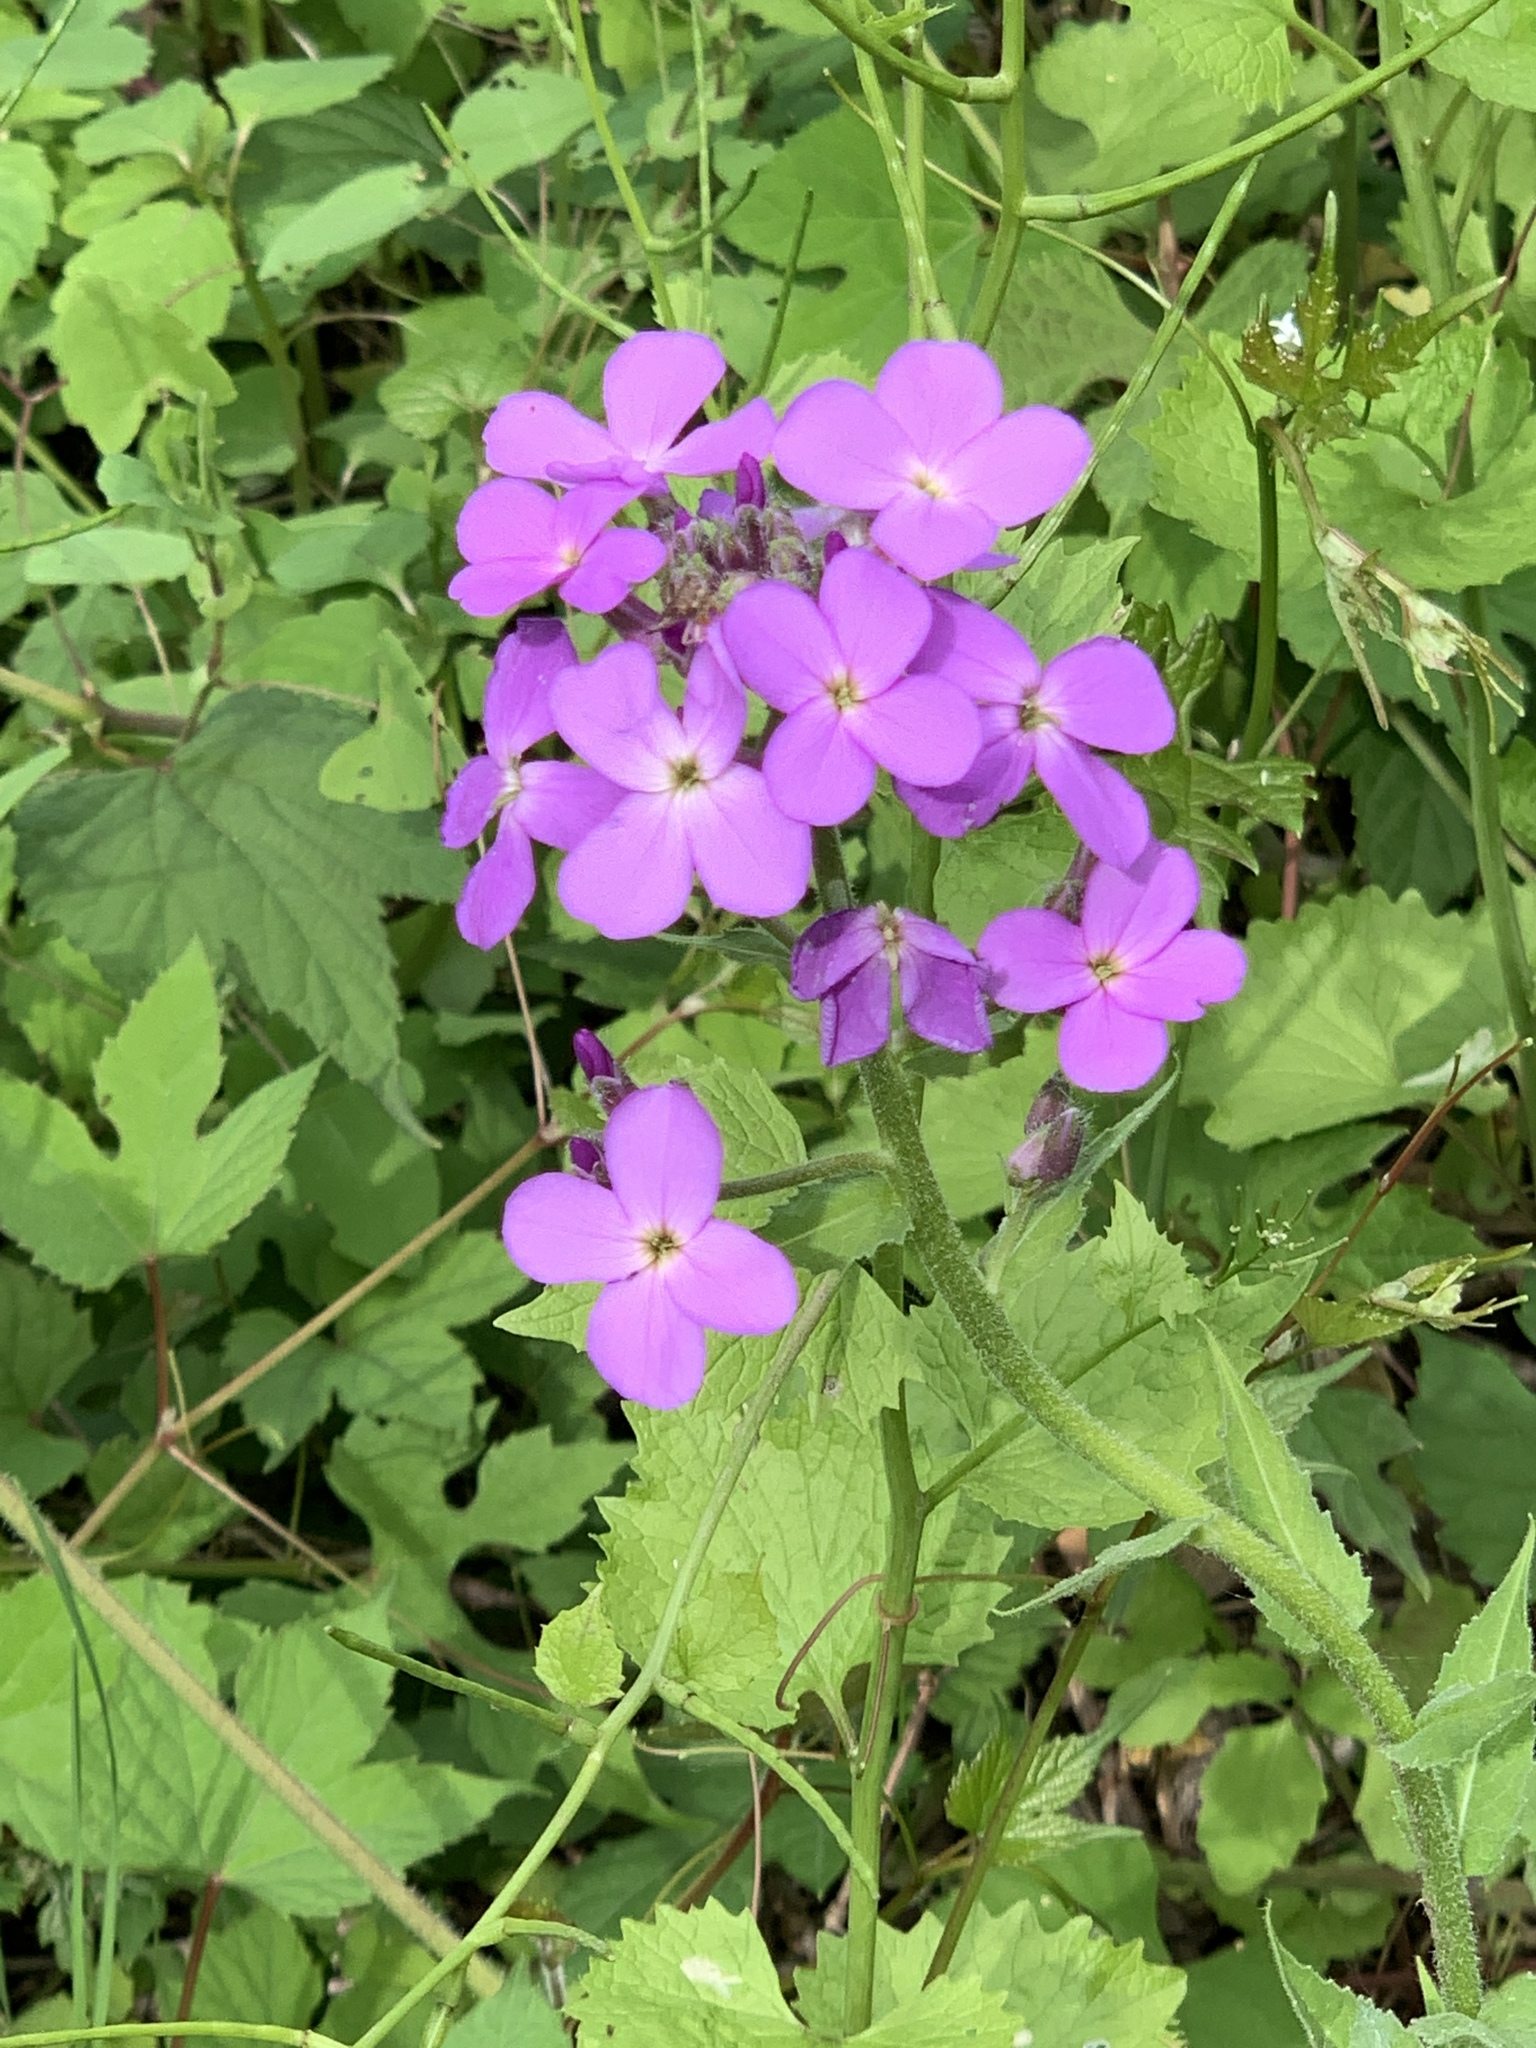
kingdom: Plantae
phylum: Tracheophyta
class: Magnoliopsida
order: Brassicales
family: Brassicaceae
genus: Hesperis
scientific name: Hesperis matronalis
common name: Dame's-violet
